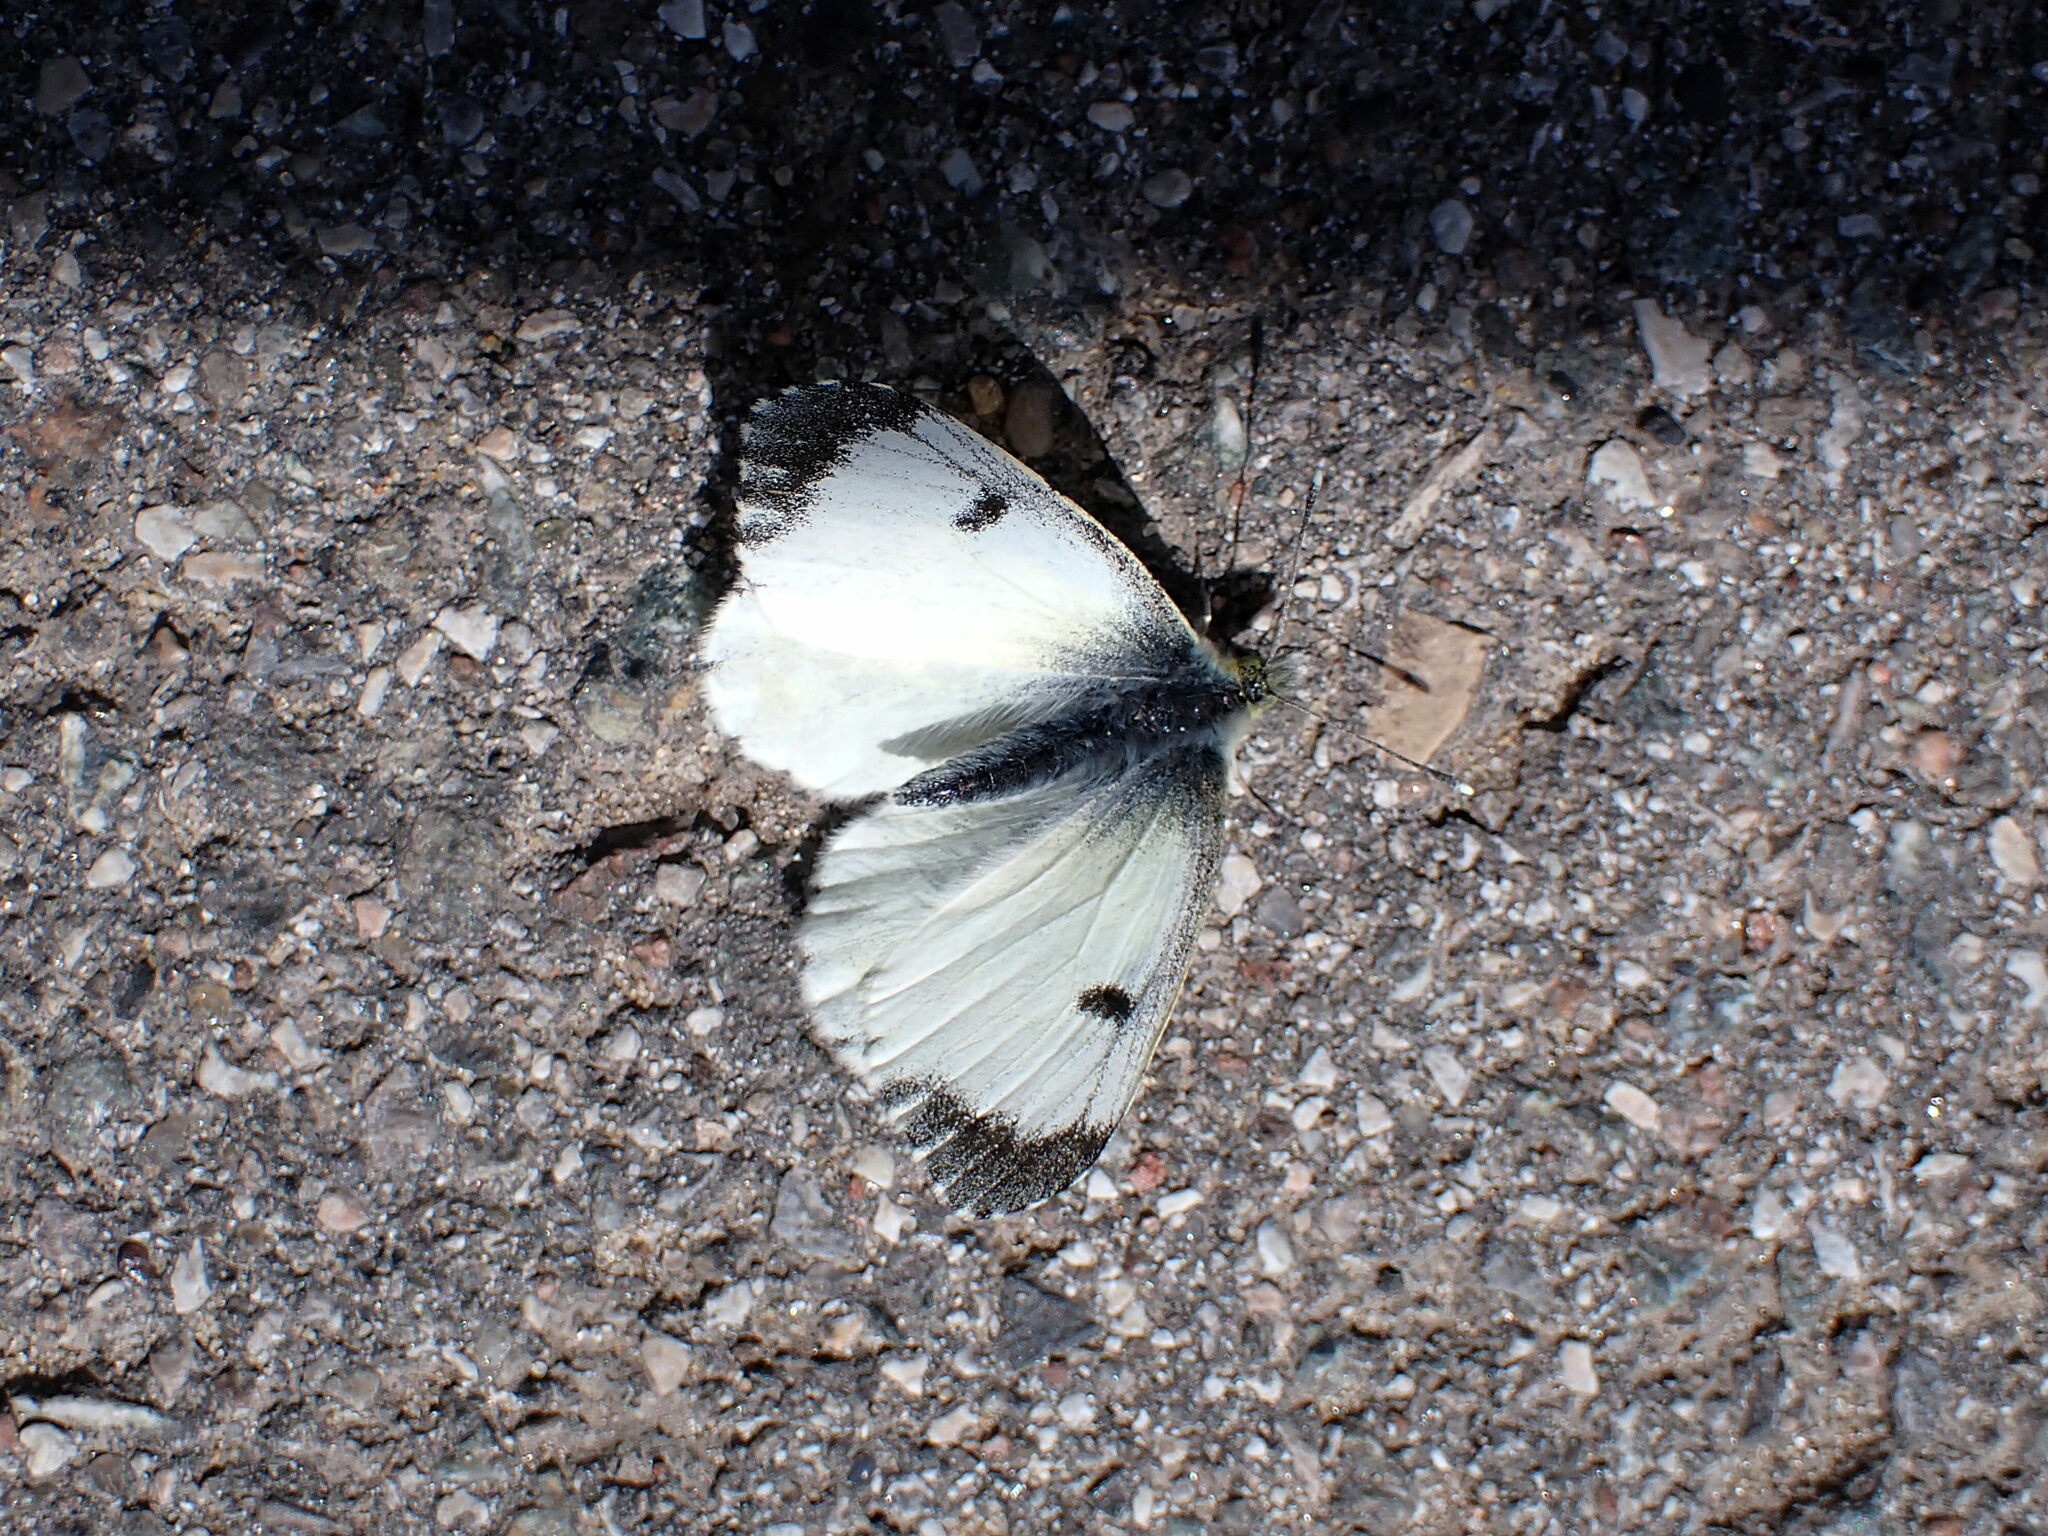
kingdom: Animalia
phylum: Arthropoda
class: Insecta
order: Lepidoptera
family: Pieridae
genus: Anthocharis
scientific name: Anthocharis cardamines
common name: Orange-tip
